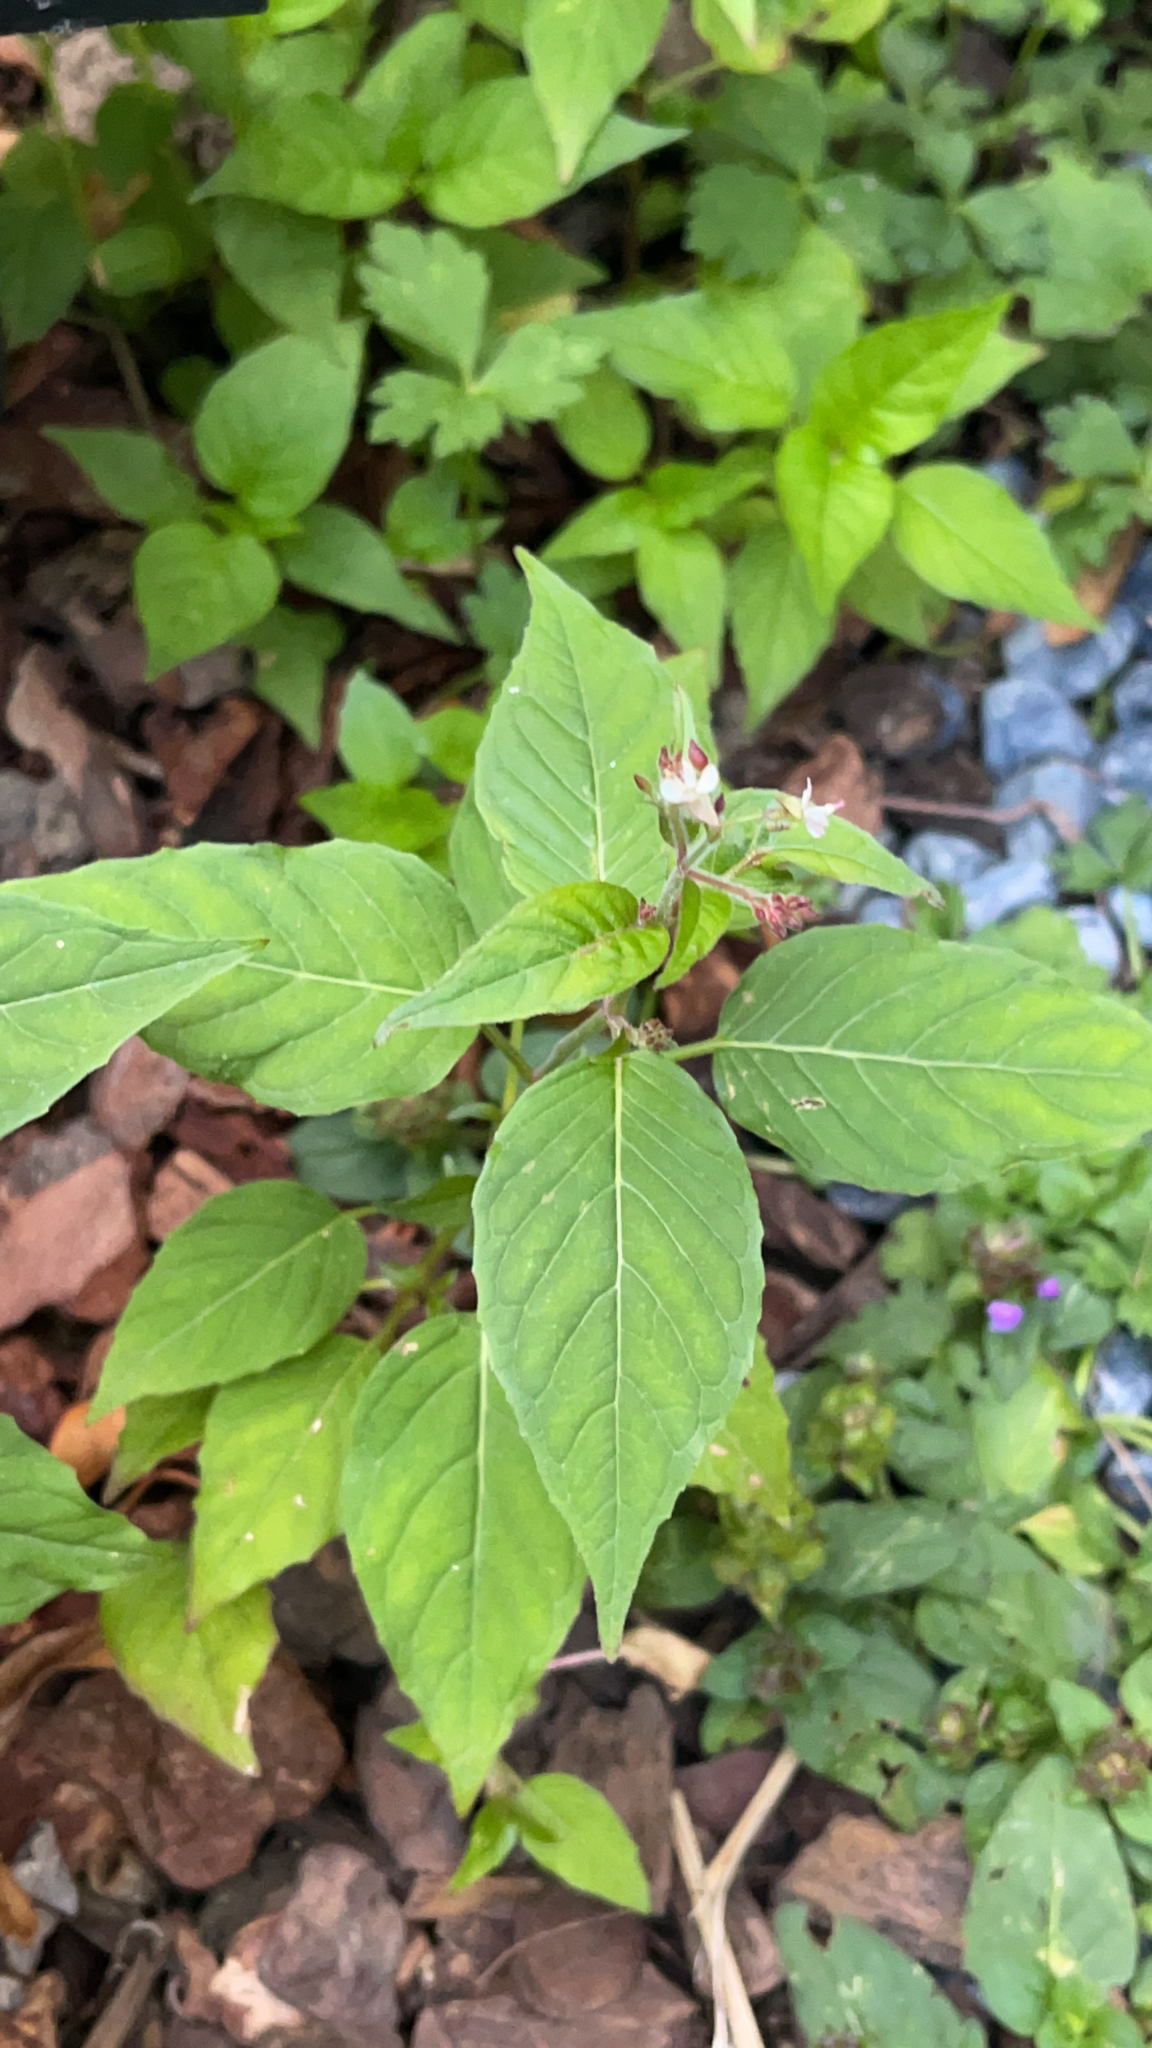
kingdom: Plantae
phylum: Tracheophyta
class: Magnoliopsida
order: Myrtales
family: Onagraceae
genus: Circaea
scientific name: Circaea lutetiana
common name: Enchanter's-nightshade
